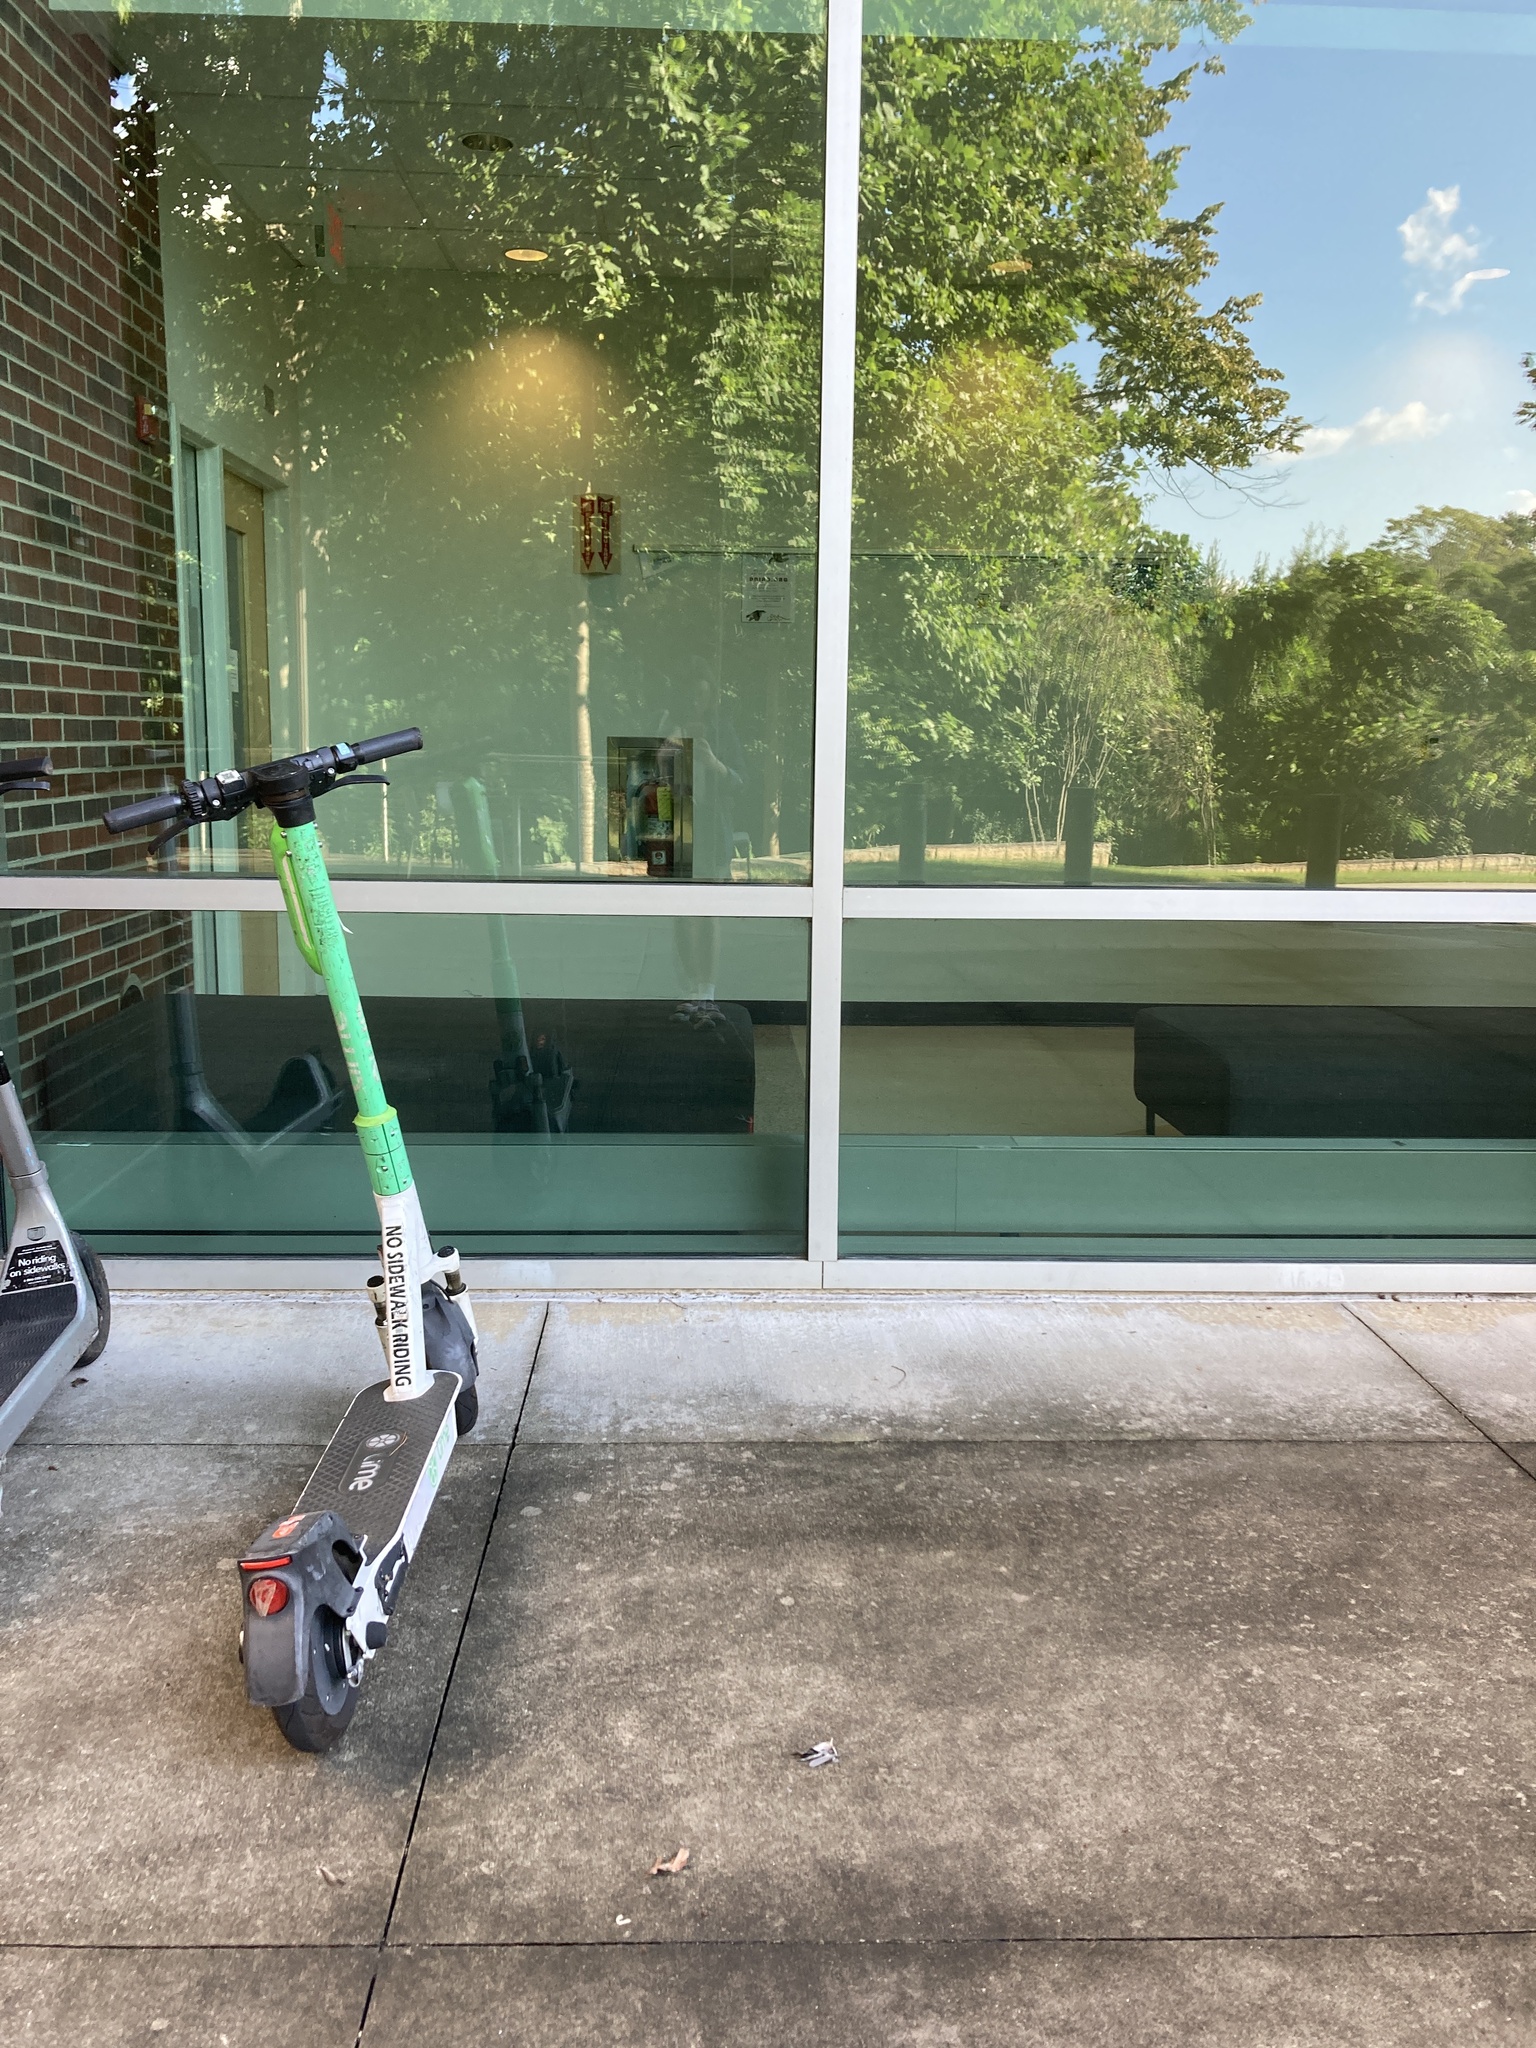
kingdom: Animalia
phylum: Chordata
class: Aves
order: Passeriformes
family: Parulidae
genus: Mniotilta
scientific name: Mniotilta varia
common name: Black-and-white warbler
